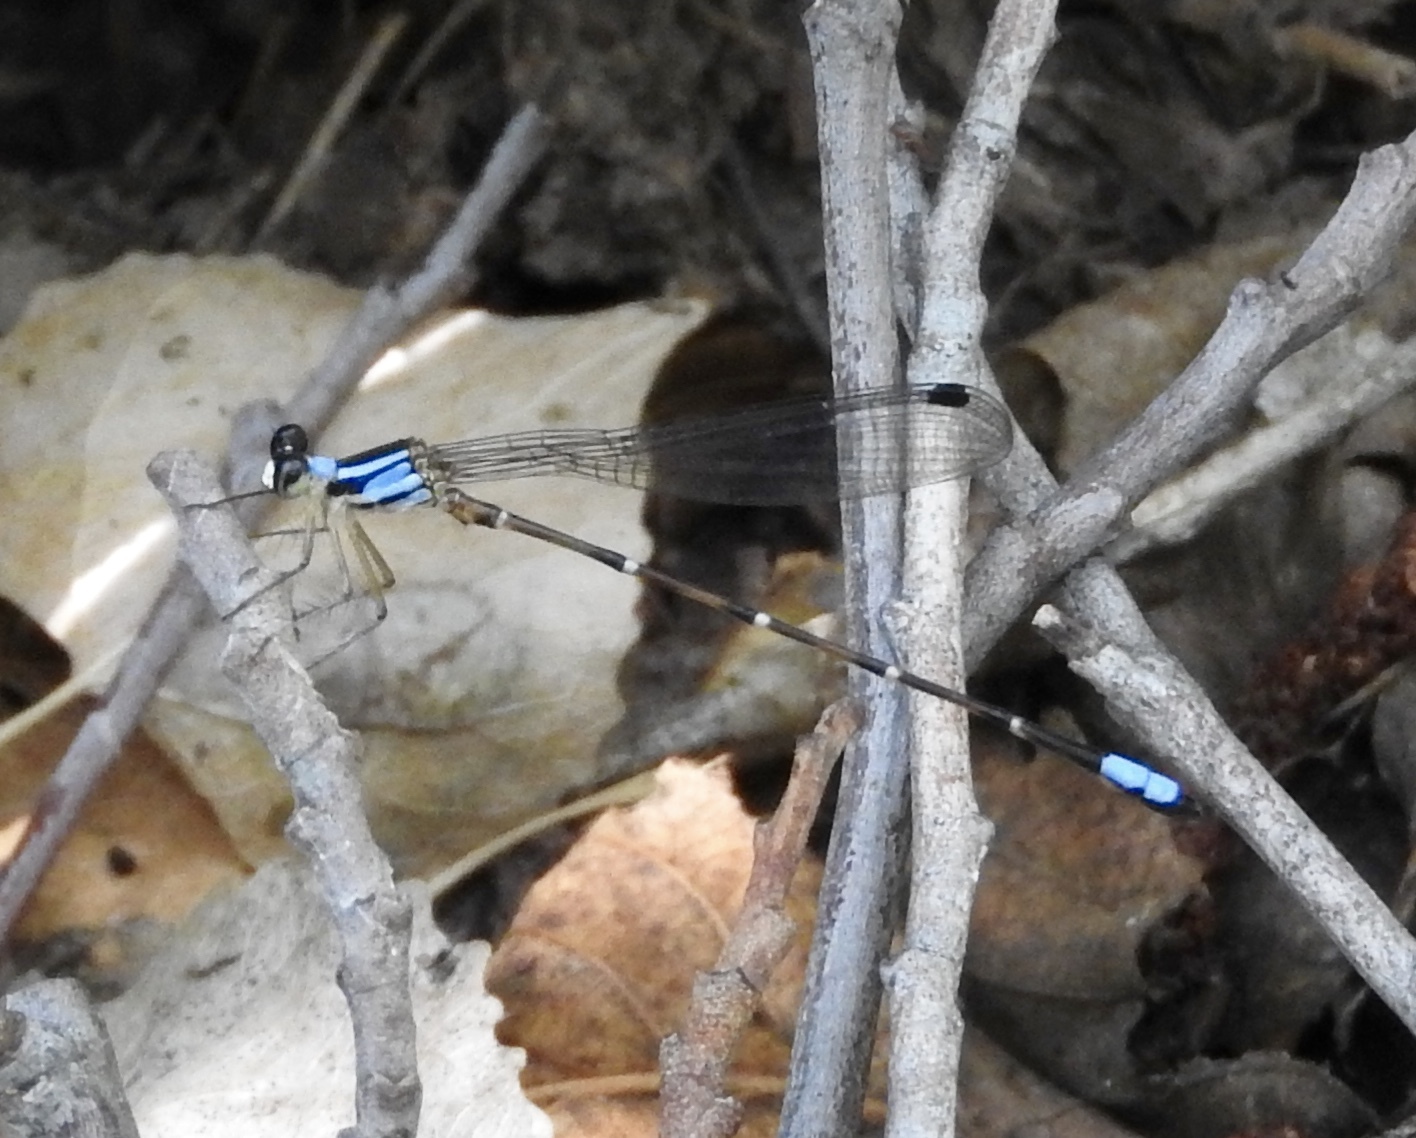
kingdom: Animalia
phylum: Arthropoda
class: Insecta
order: Odonata
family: Platystictidae
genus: Palaemnema
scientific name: Palaemnema domina
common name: Desert shadowdamsel
